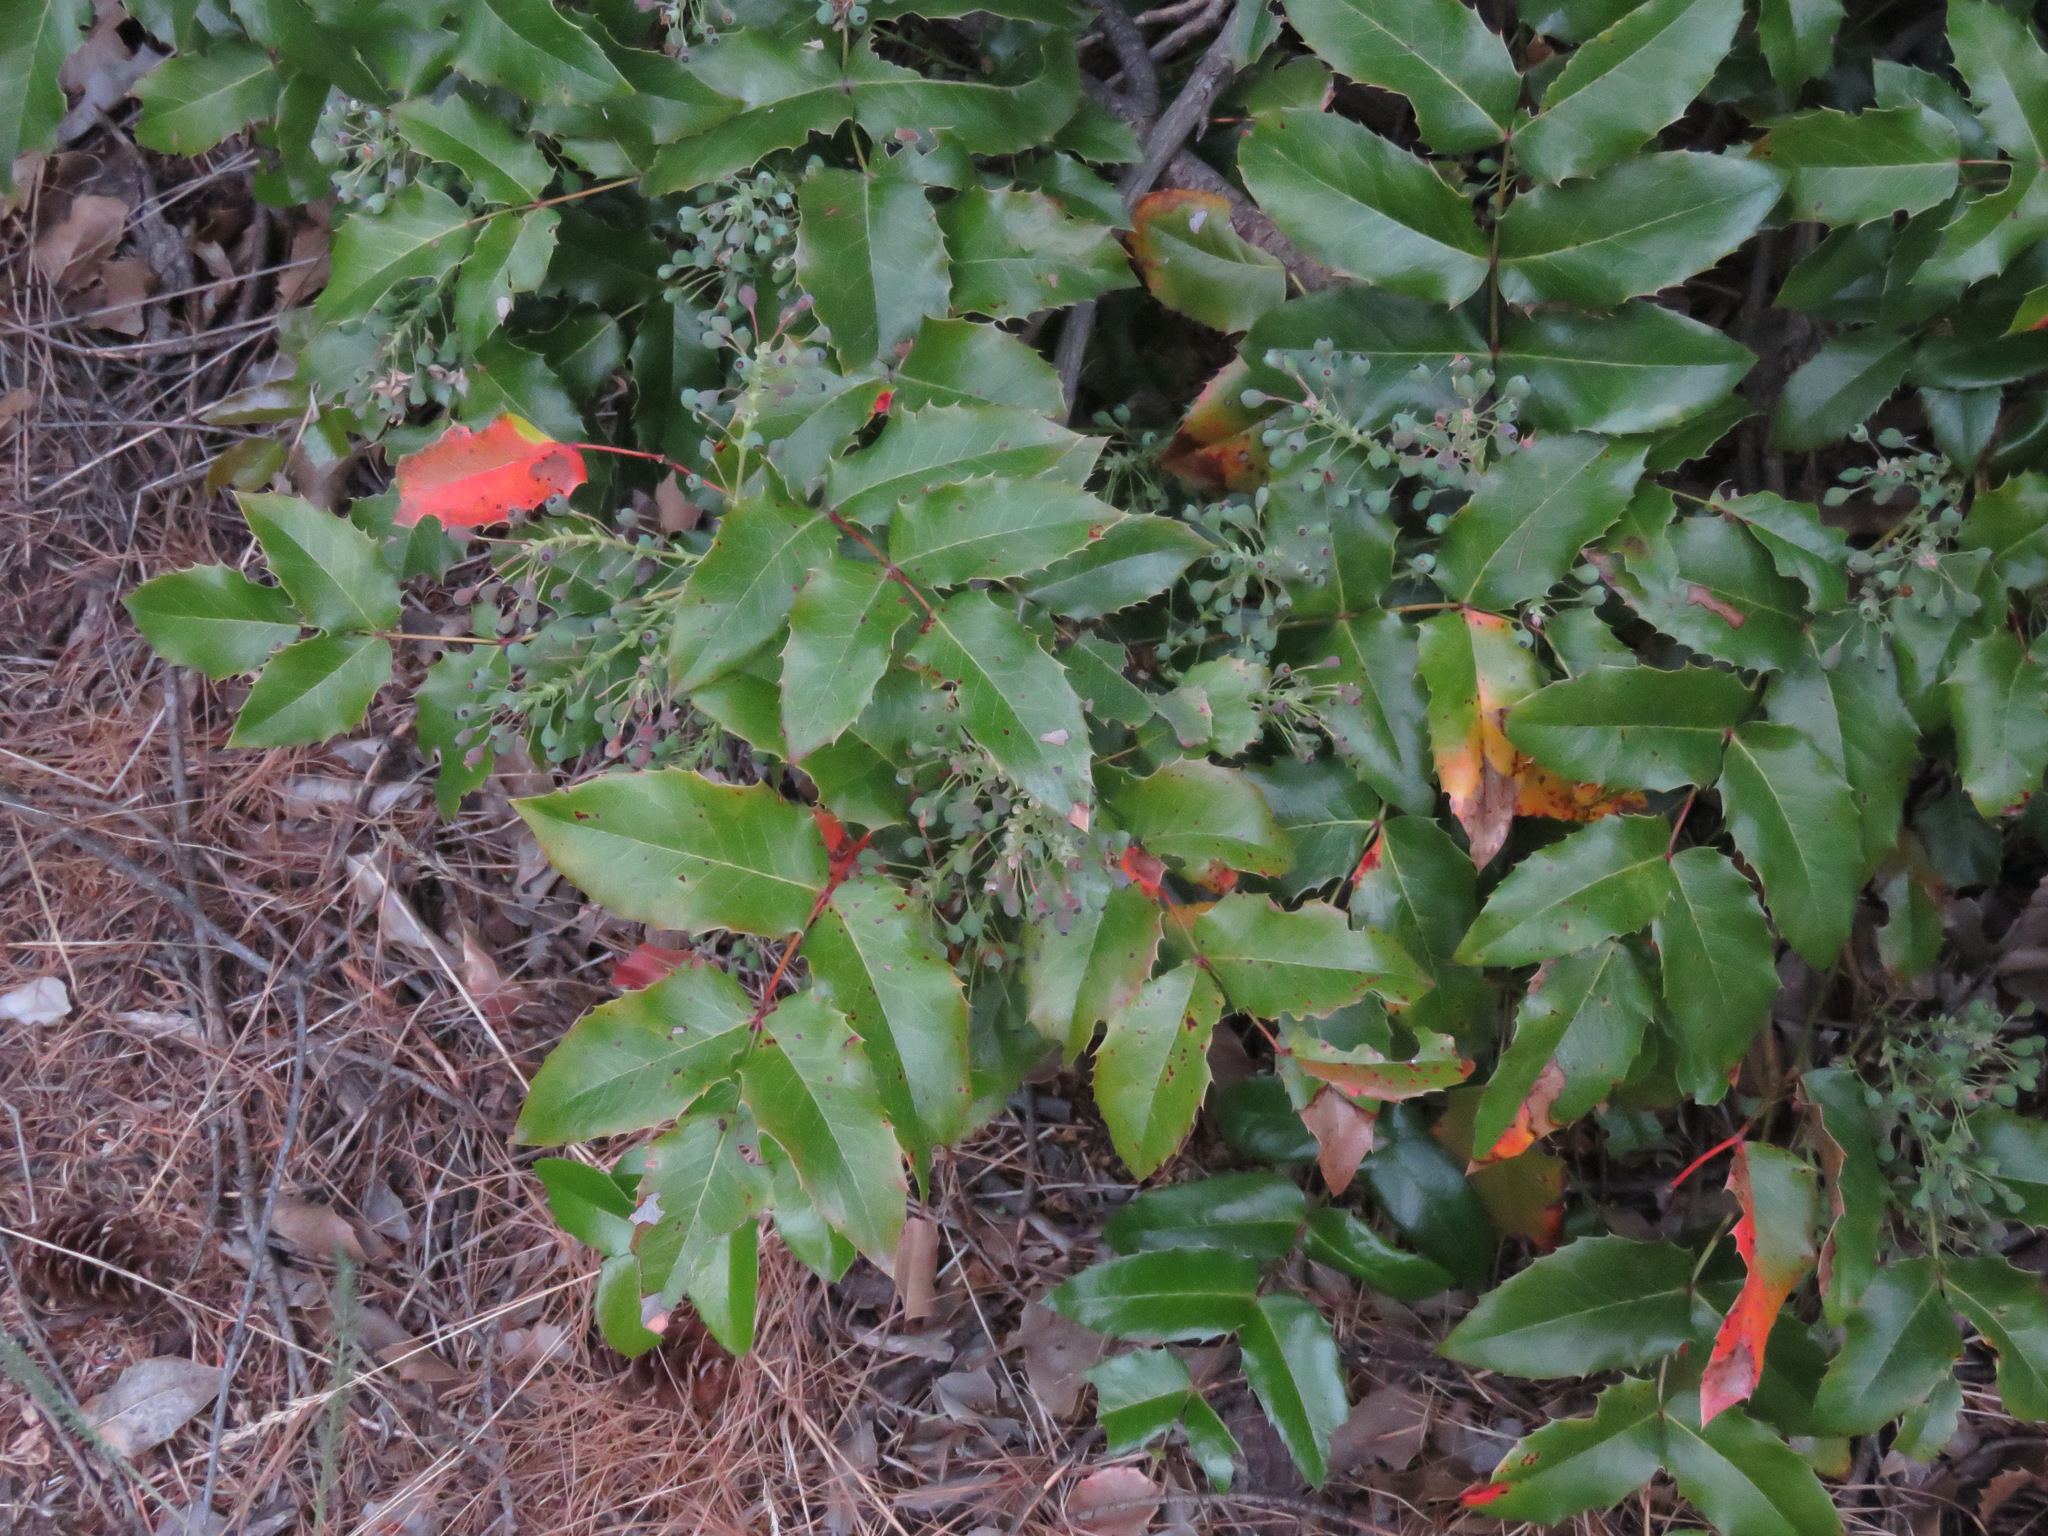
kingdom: Plantae
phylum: Tracheophyta
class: Magnoliopsida
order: Ranunculales
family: Berberidaceae
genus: Mahonia
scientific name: Mahonia aquifolium
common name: Oregon-grape
